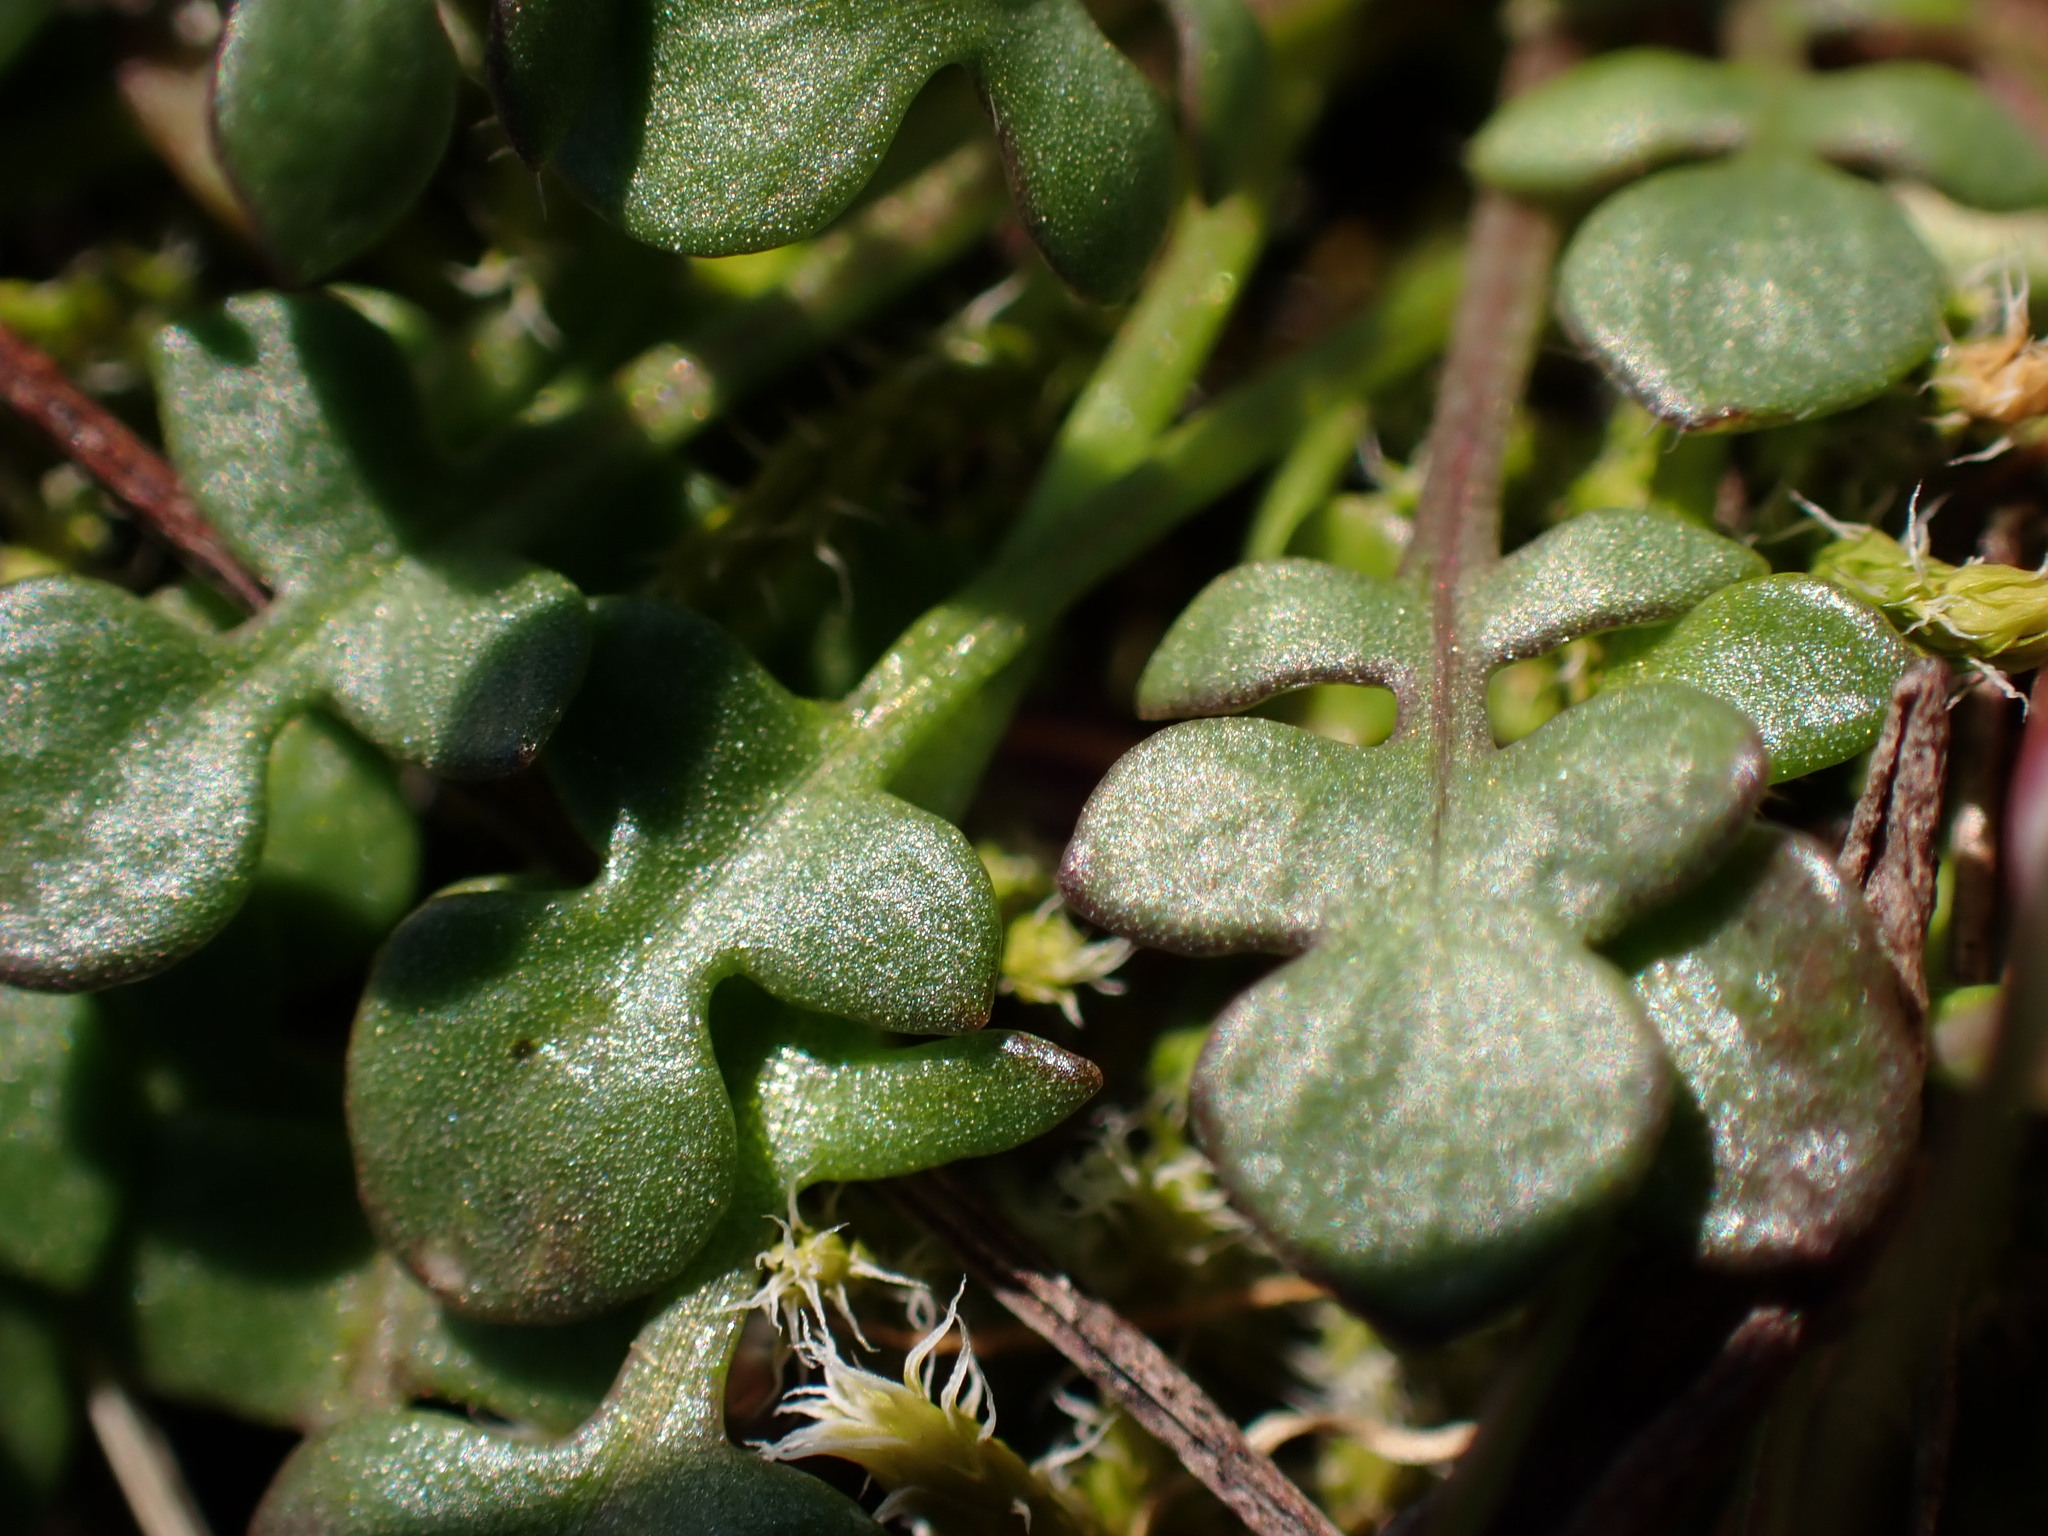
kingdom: Plantae
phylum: Tracheophyta
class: Magnoliopsida
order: Brassicales
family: Brassicaceae
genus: Teesdalia
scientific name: Teesdalia nudicaulis
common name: Shepherd's cress
